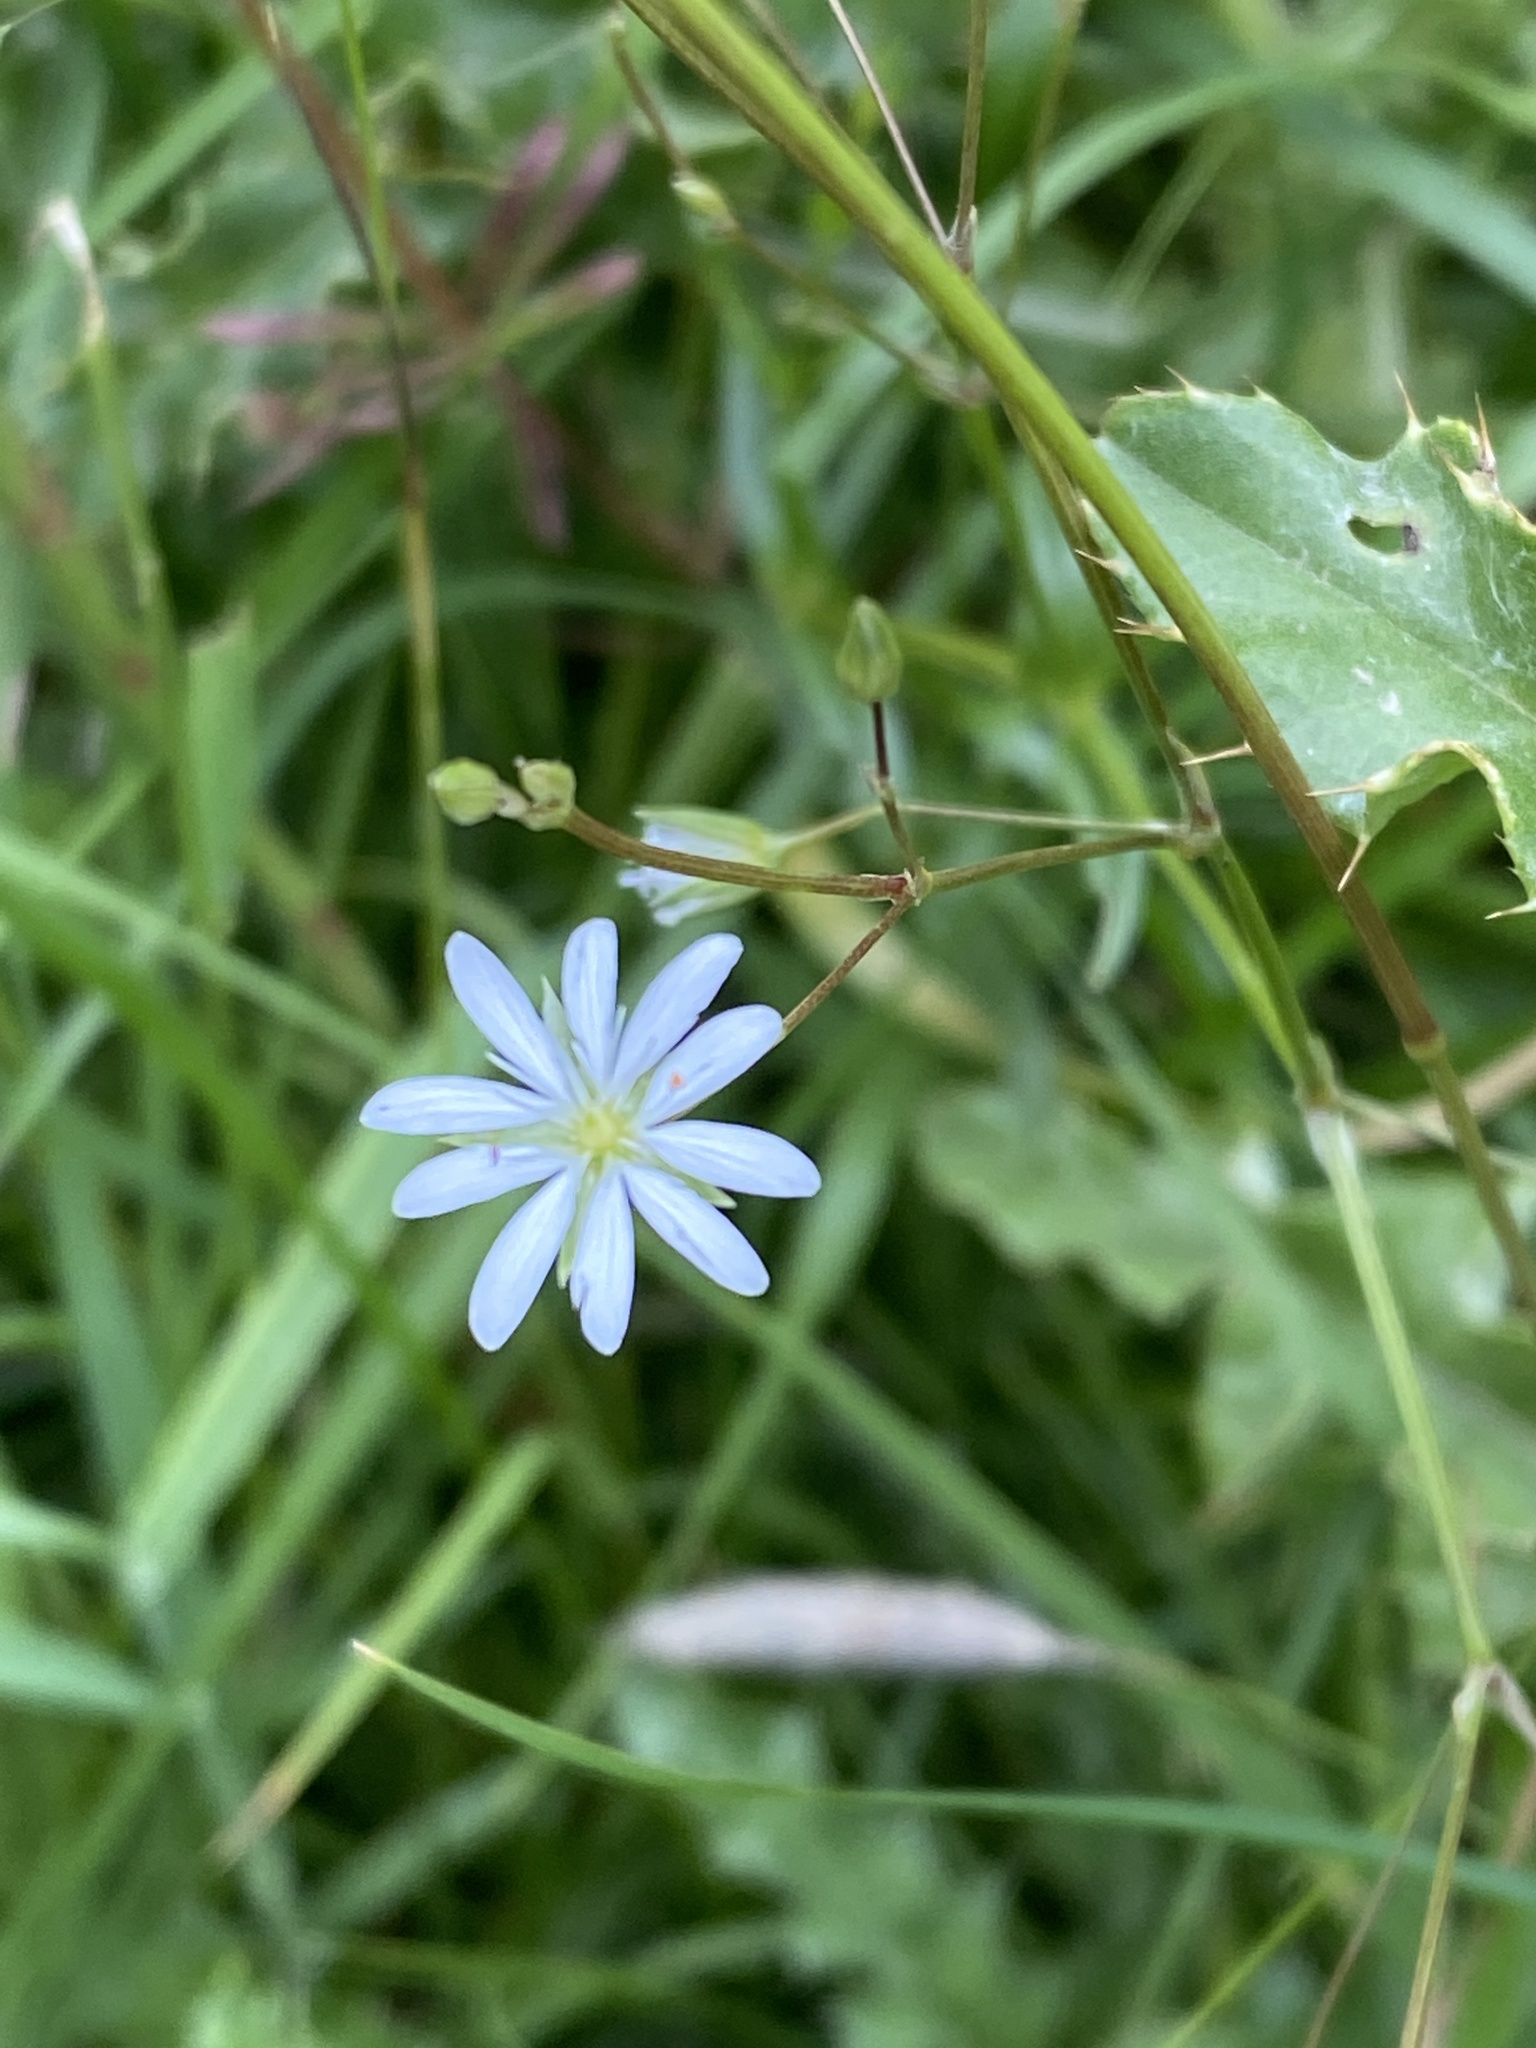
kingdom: Plantae
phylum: Tracheophyta
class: Magnoliopsida
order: Caryophyllales
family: Caryophyllaceae
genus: Stellaria
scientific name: Stellaria graminea
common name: Grass-like starwort
